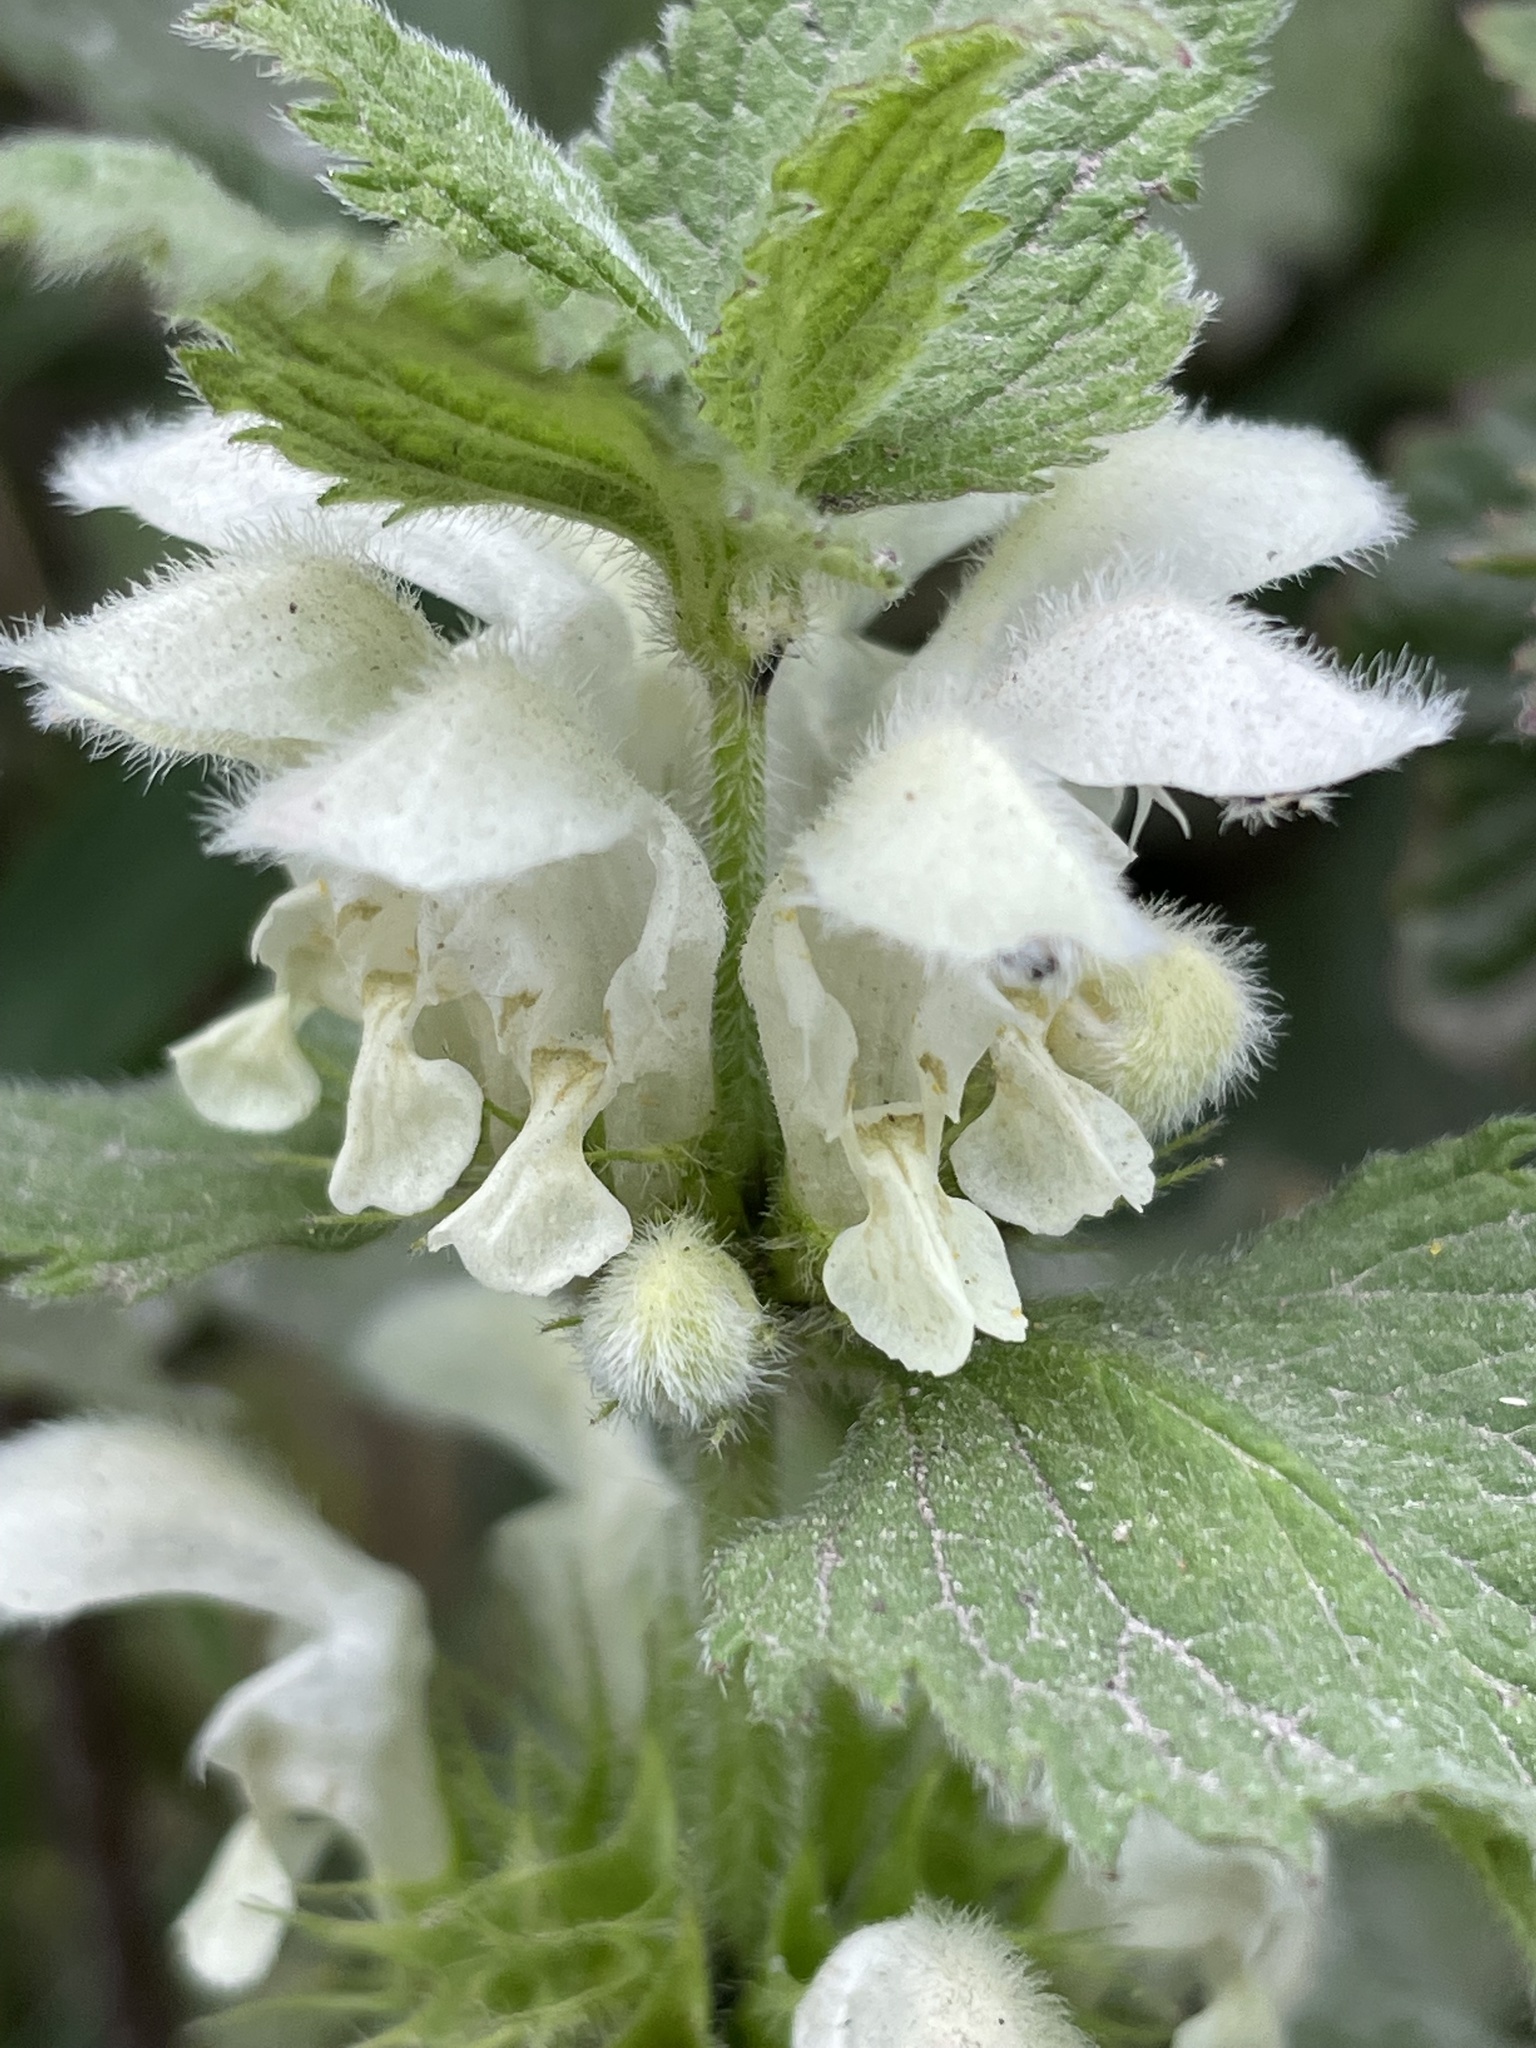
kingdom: Plantae
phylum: Tracheophyta
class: Magnoliopsida
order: Lamiales
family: Lamiaceae
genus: Lamium
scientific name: Lamium album
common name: White dead-nettle
